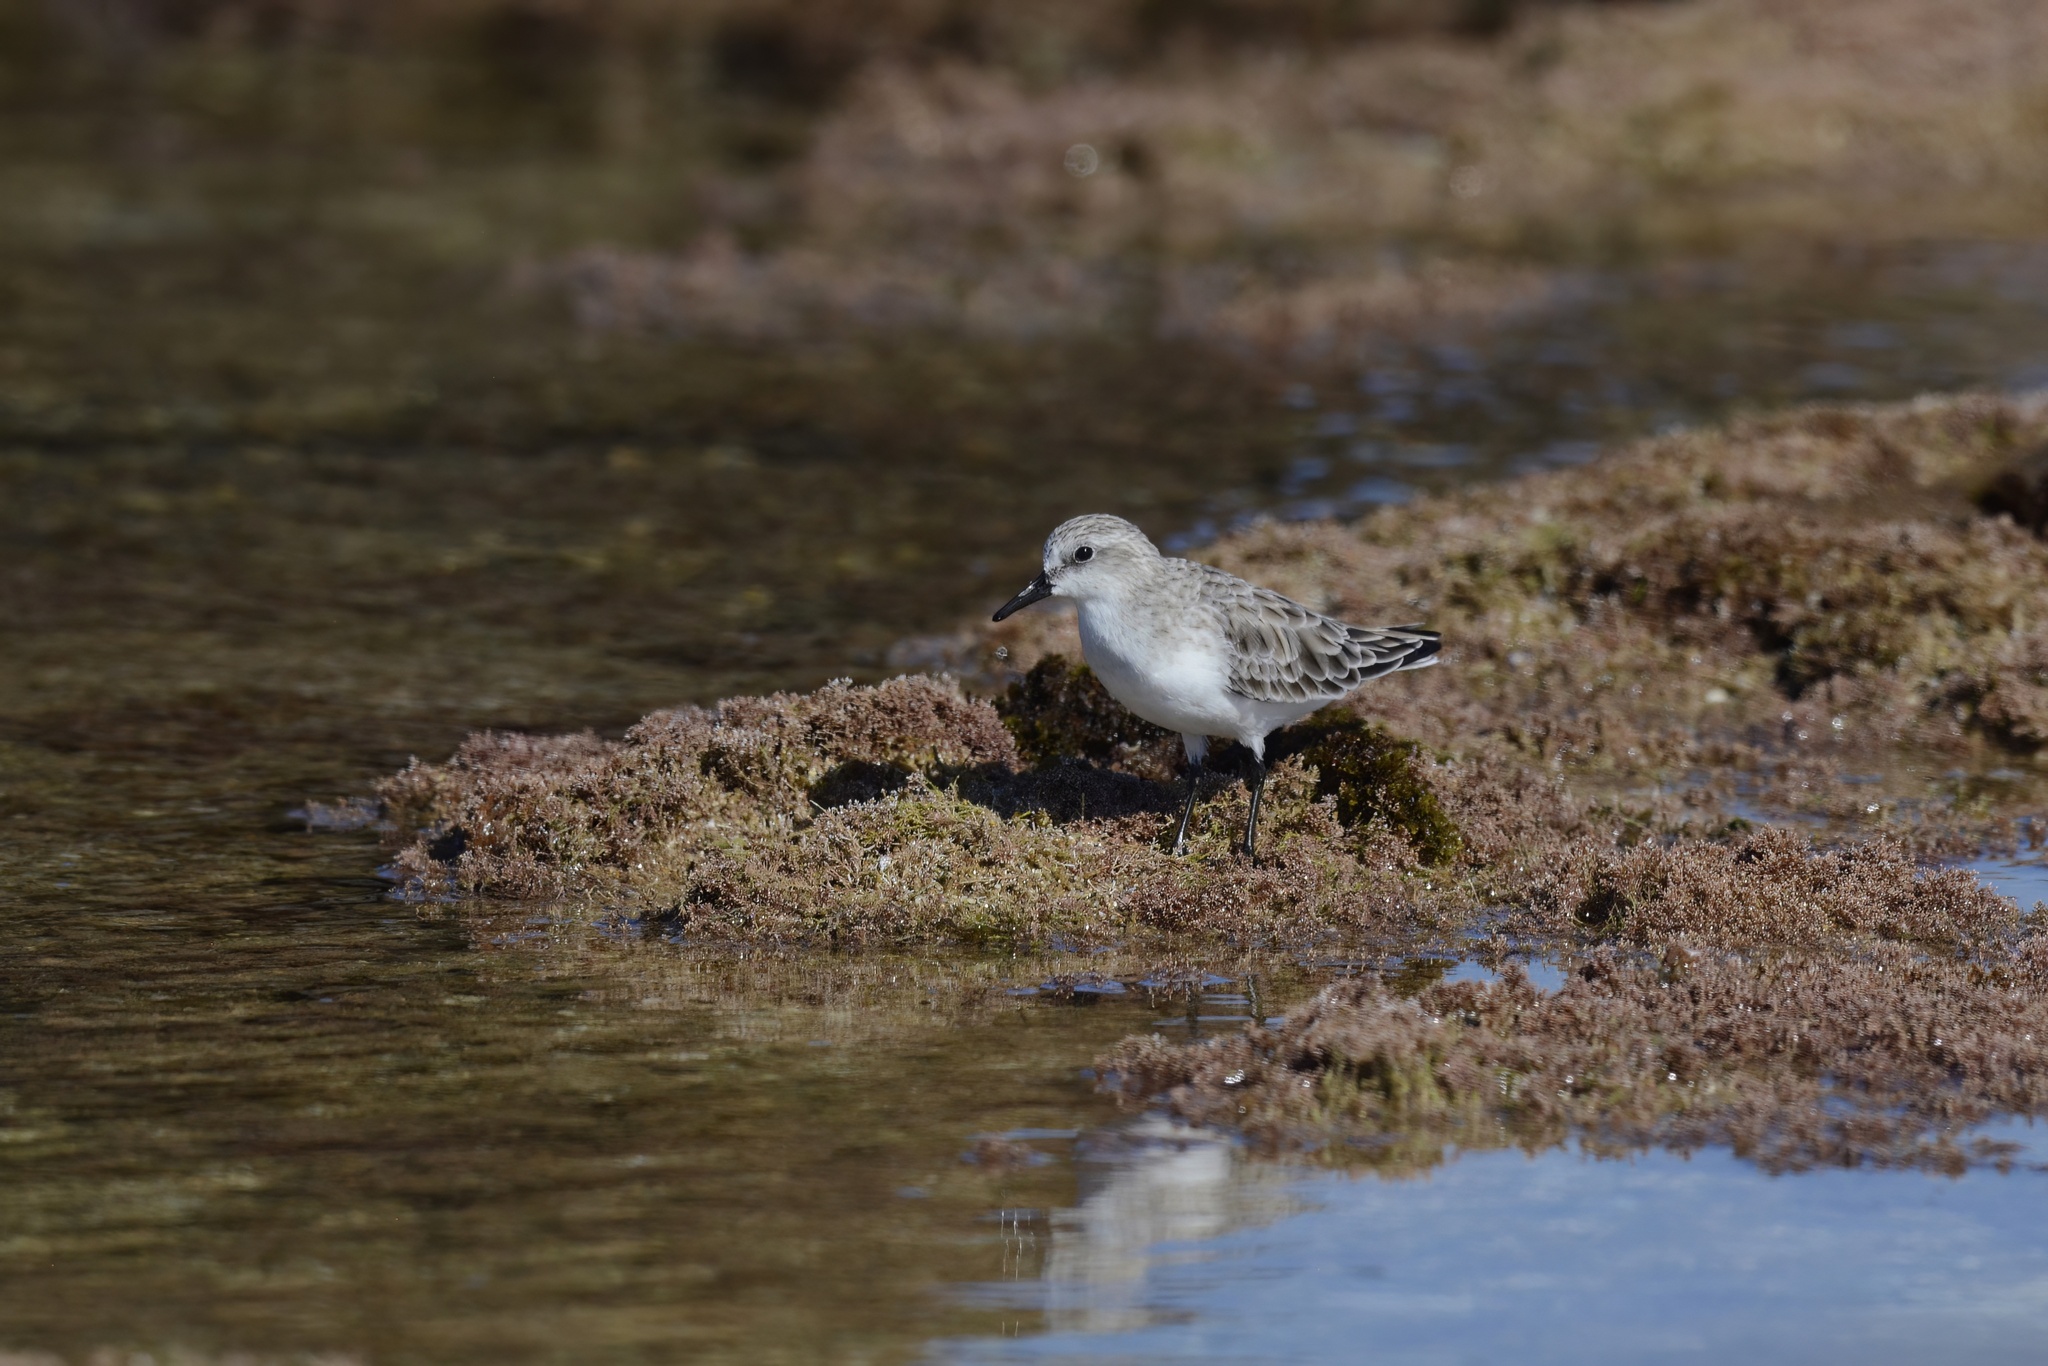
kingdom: Animalia
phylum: Chordata
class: Aves
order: Charadriiformes
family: Scolopacidae
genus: Calidris
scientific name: Calidris ruficollis
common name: Red-necked stint
